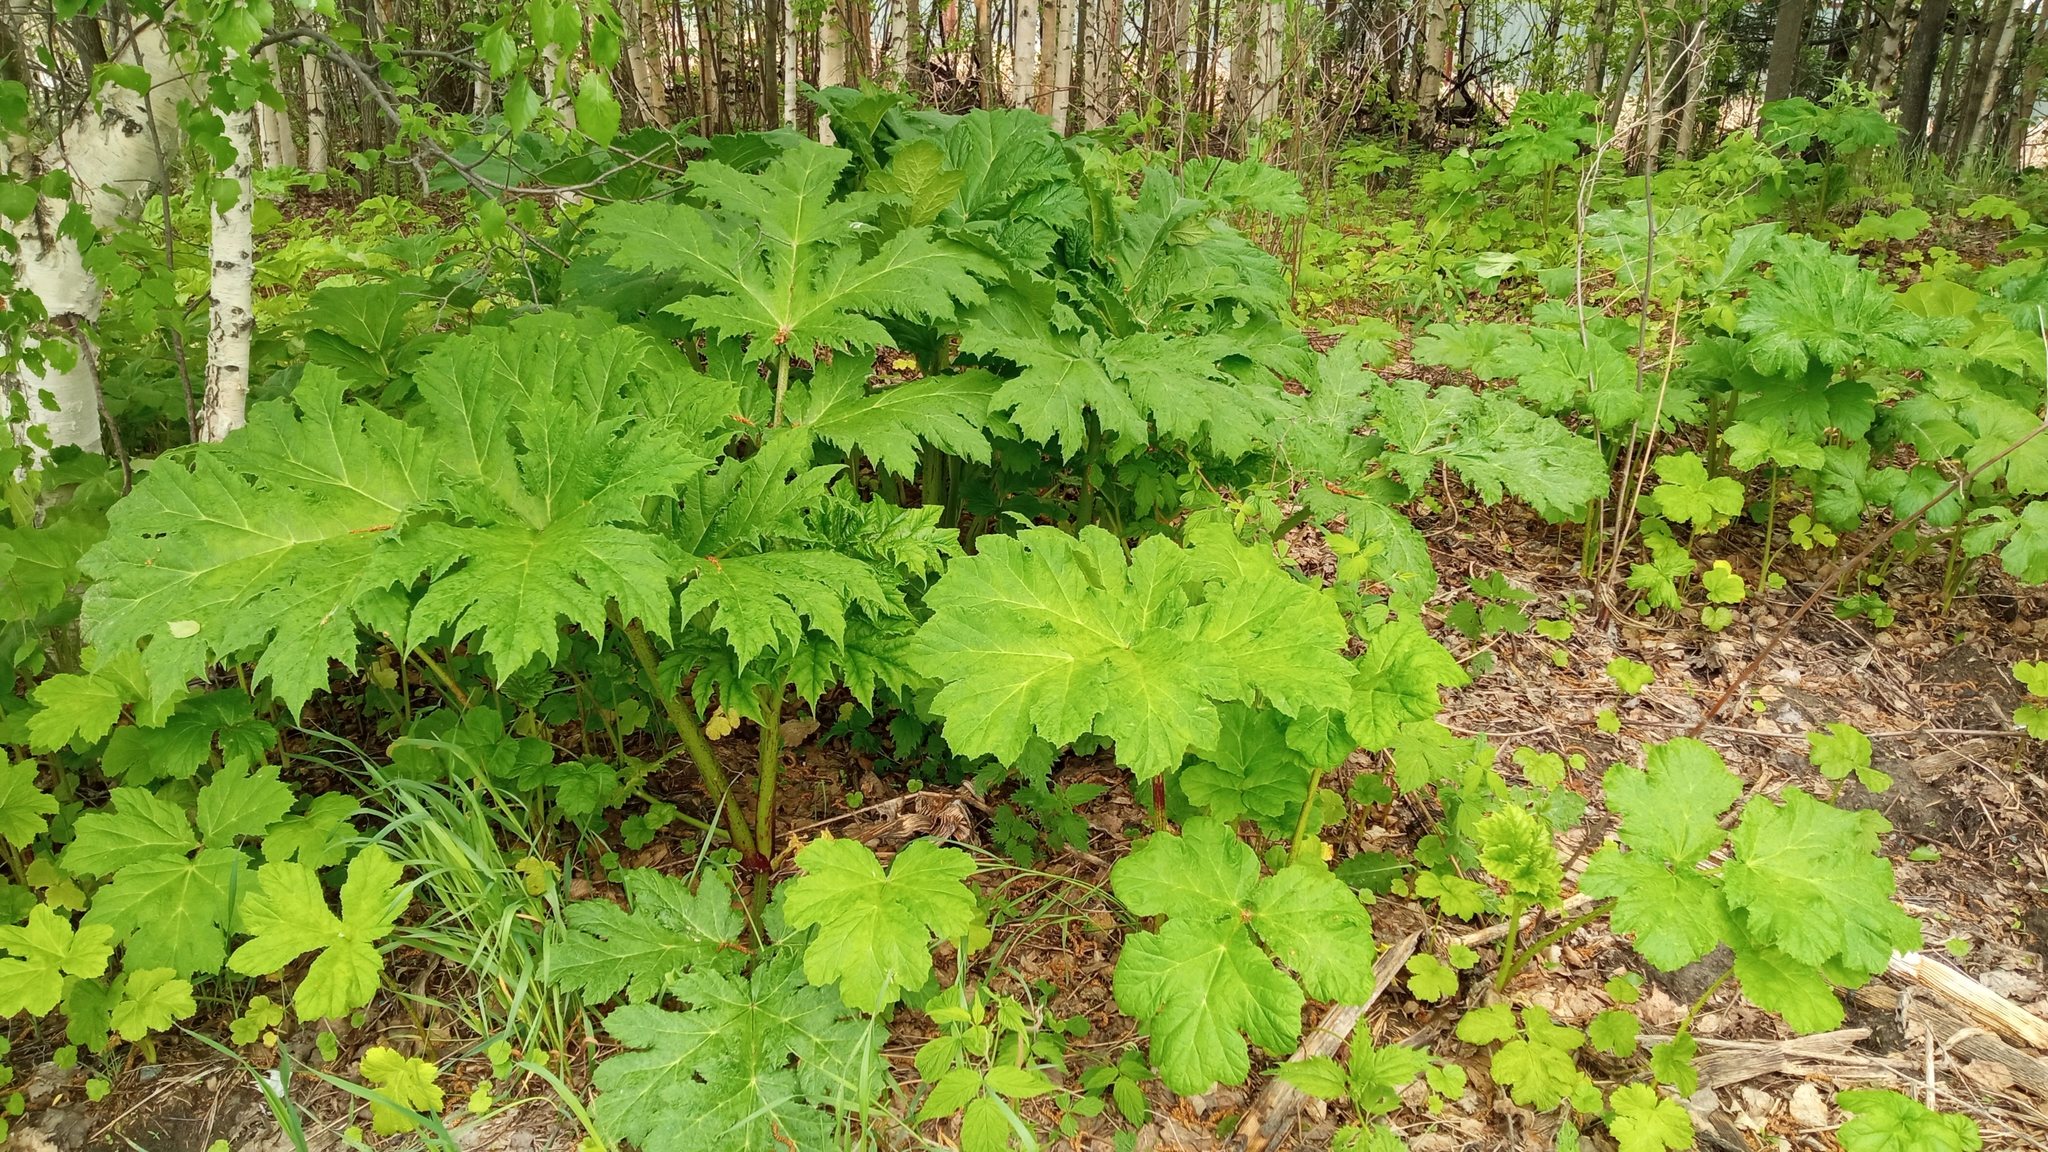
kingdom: Plantae
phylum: Tracheophyta
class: Magnoliopsida
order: Apiales
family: Apiaceae
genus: Heracleum
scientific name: Heracleum sosnowskyi
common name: Sosnowsky's hogweed
